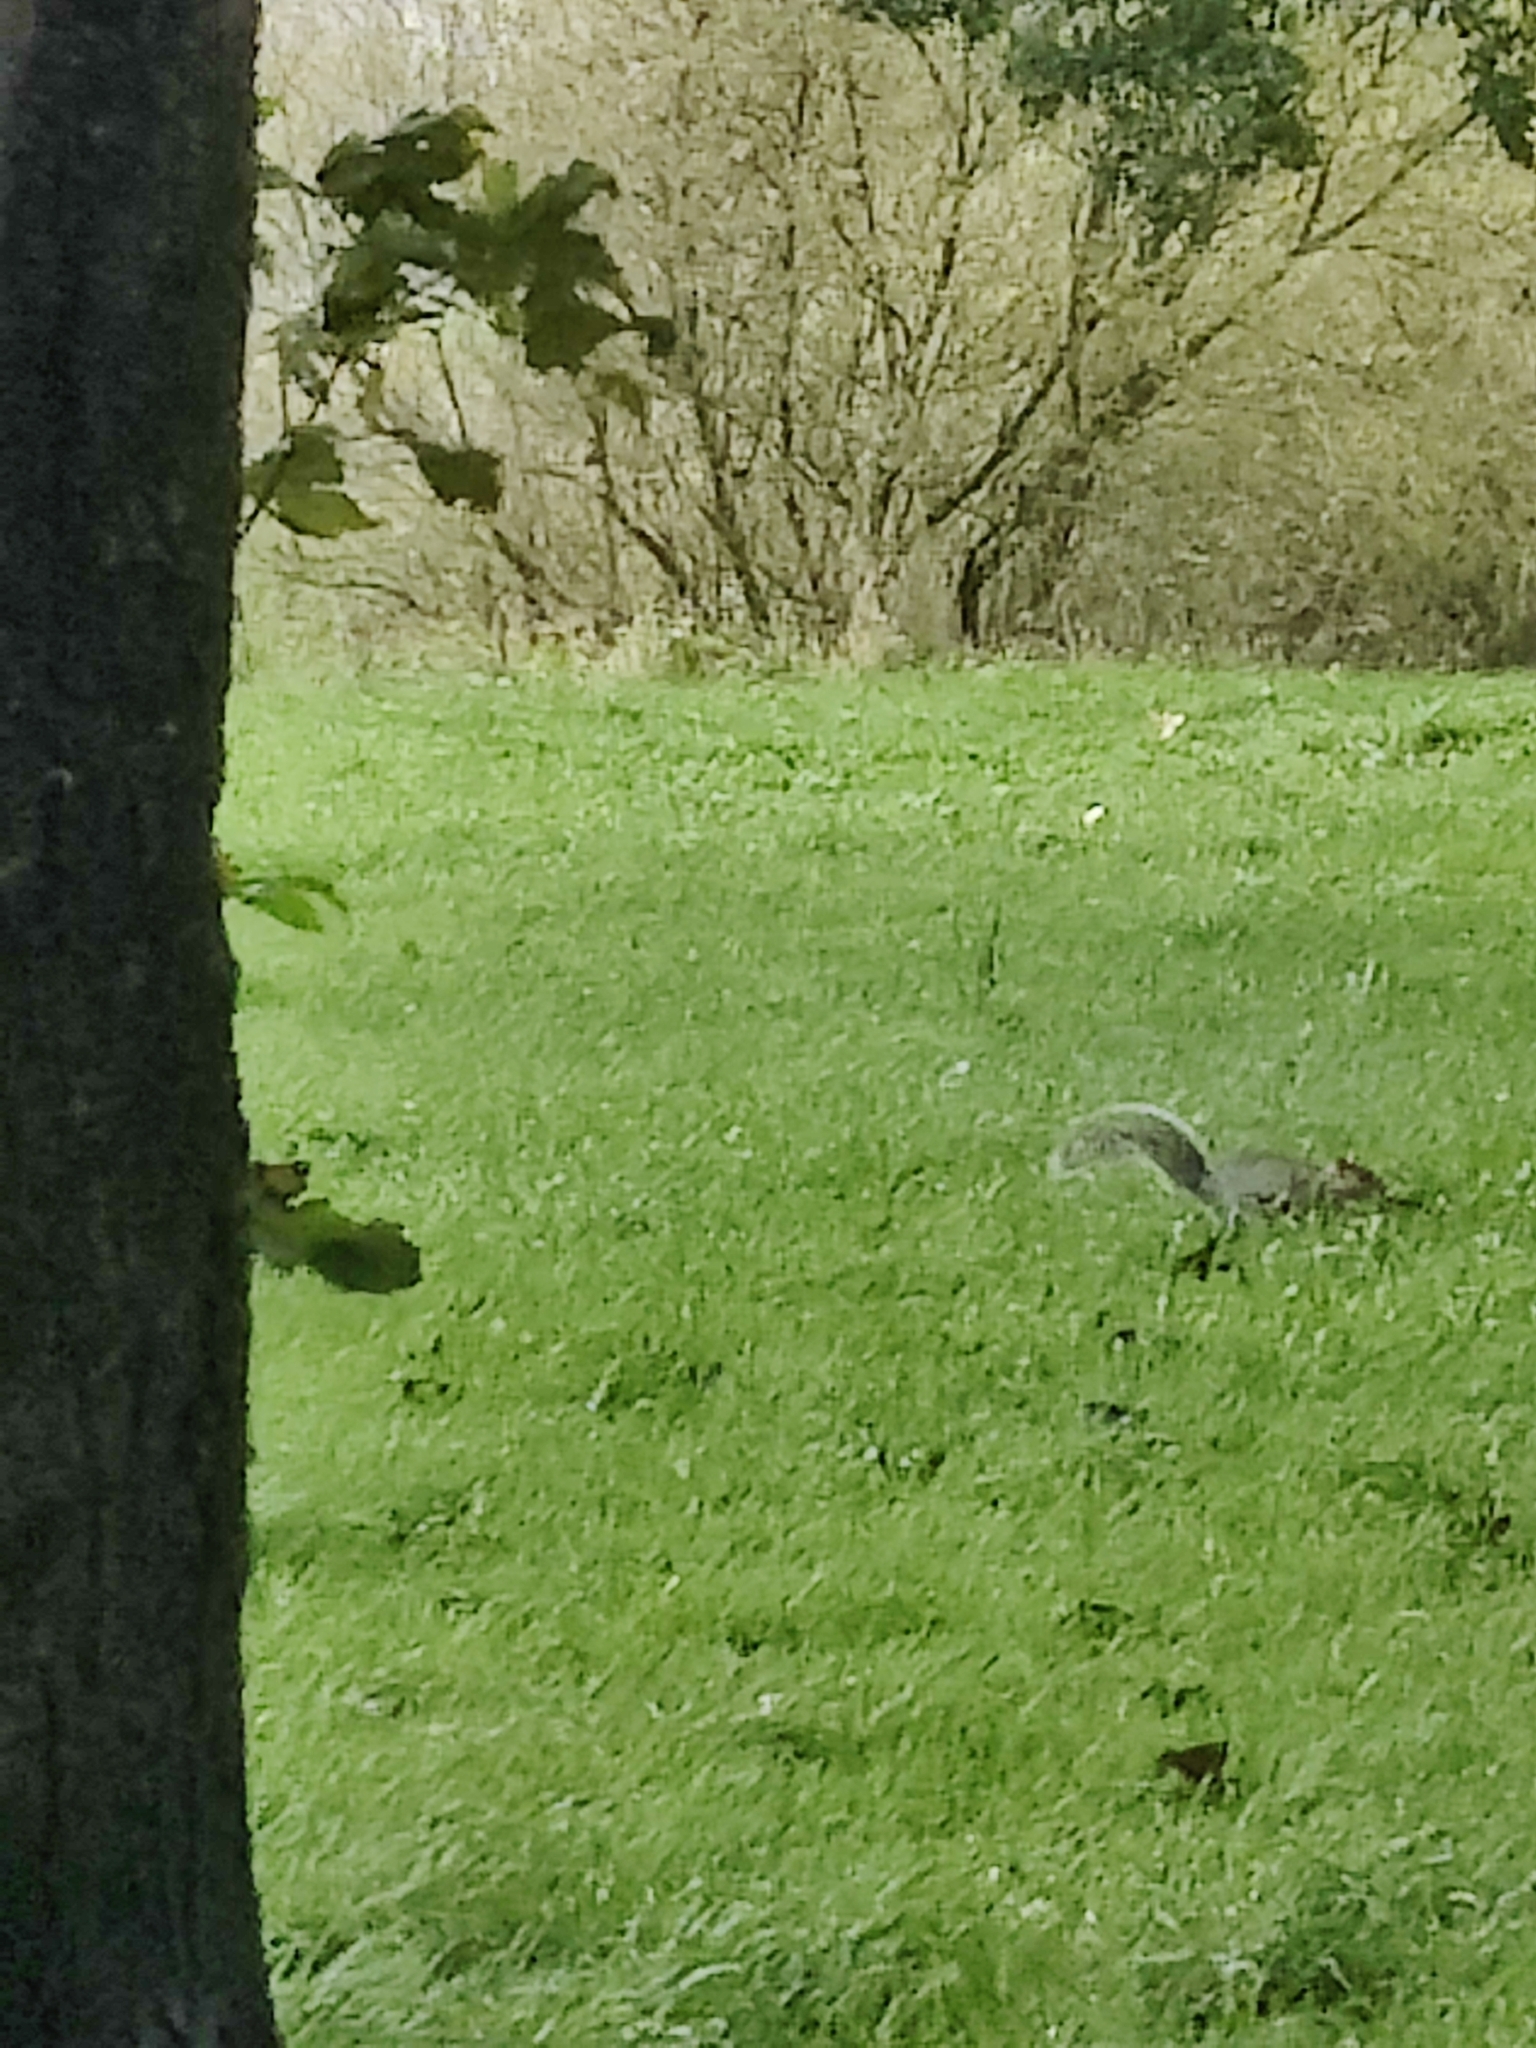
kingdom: Animalia
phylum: Chordata
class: Mammalia
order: Rodentia
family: Sciuridae
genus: Sciurus
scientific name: Sciurus carolinensis
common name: Eastern gray squirrel
